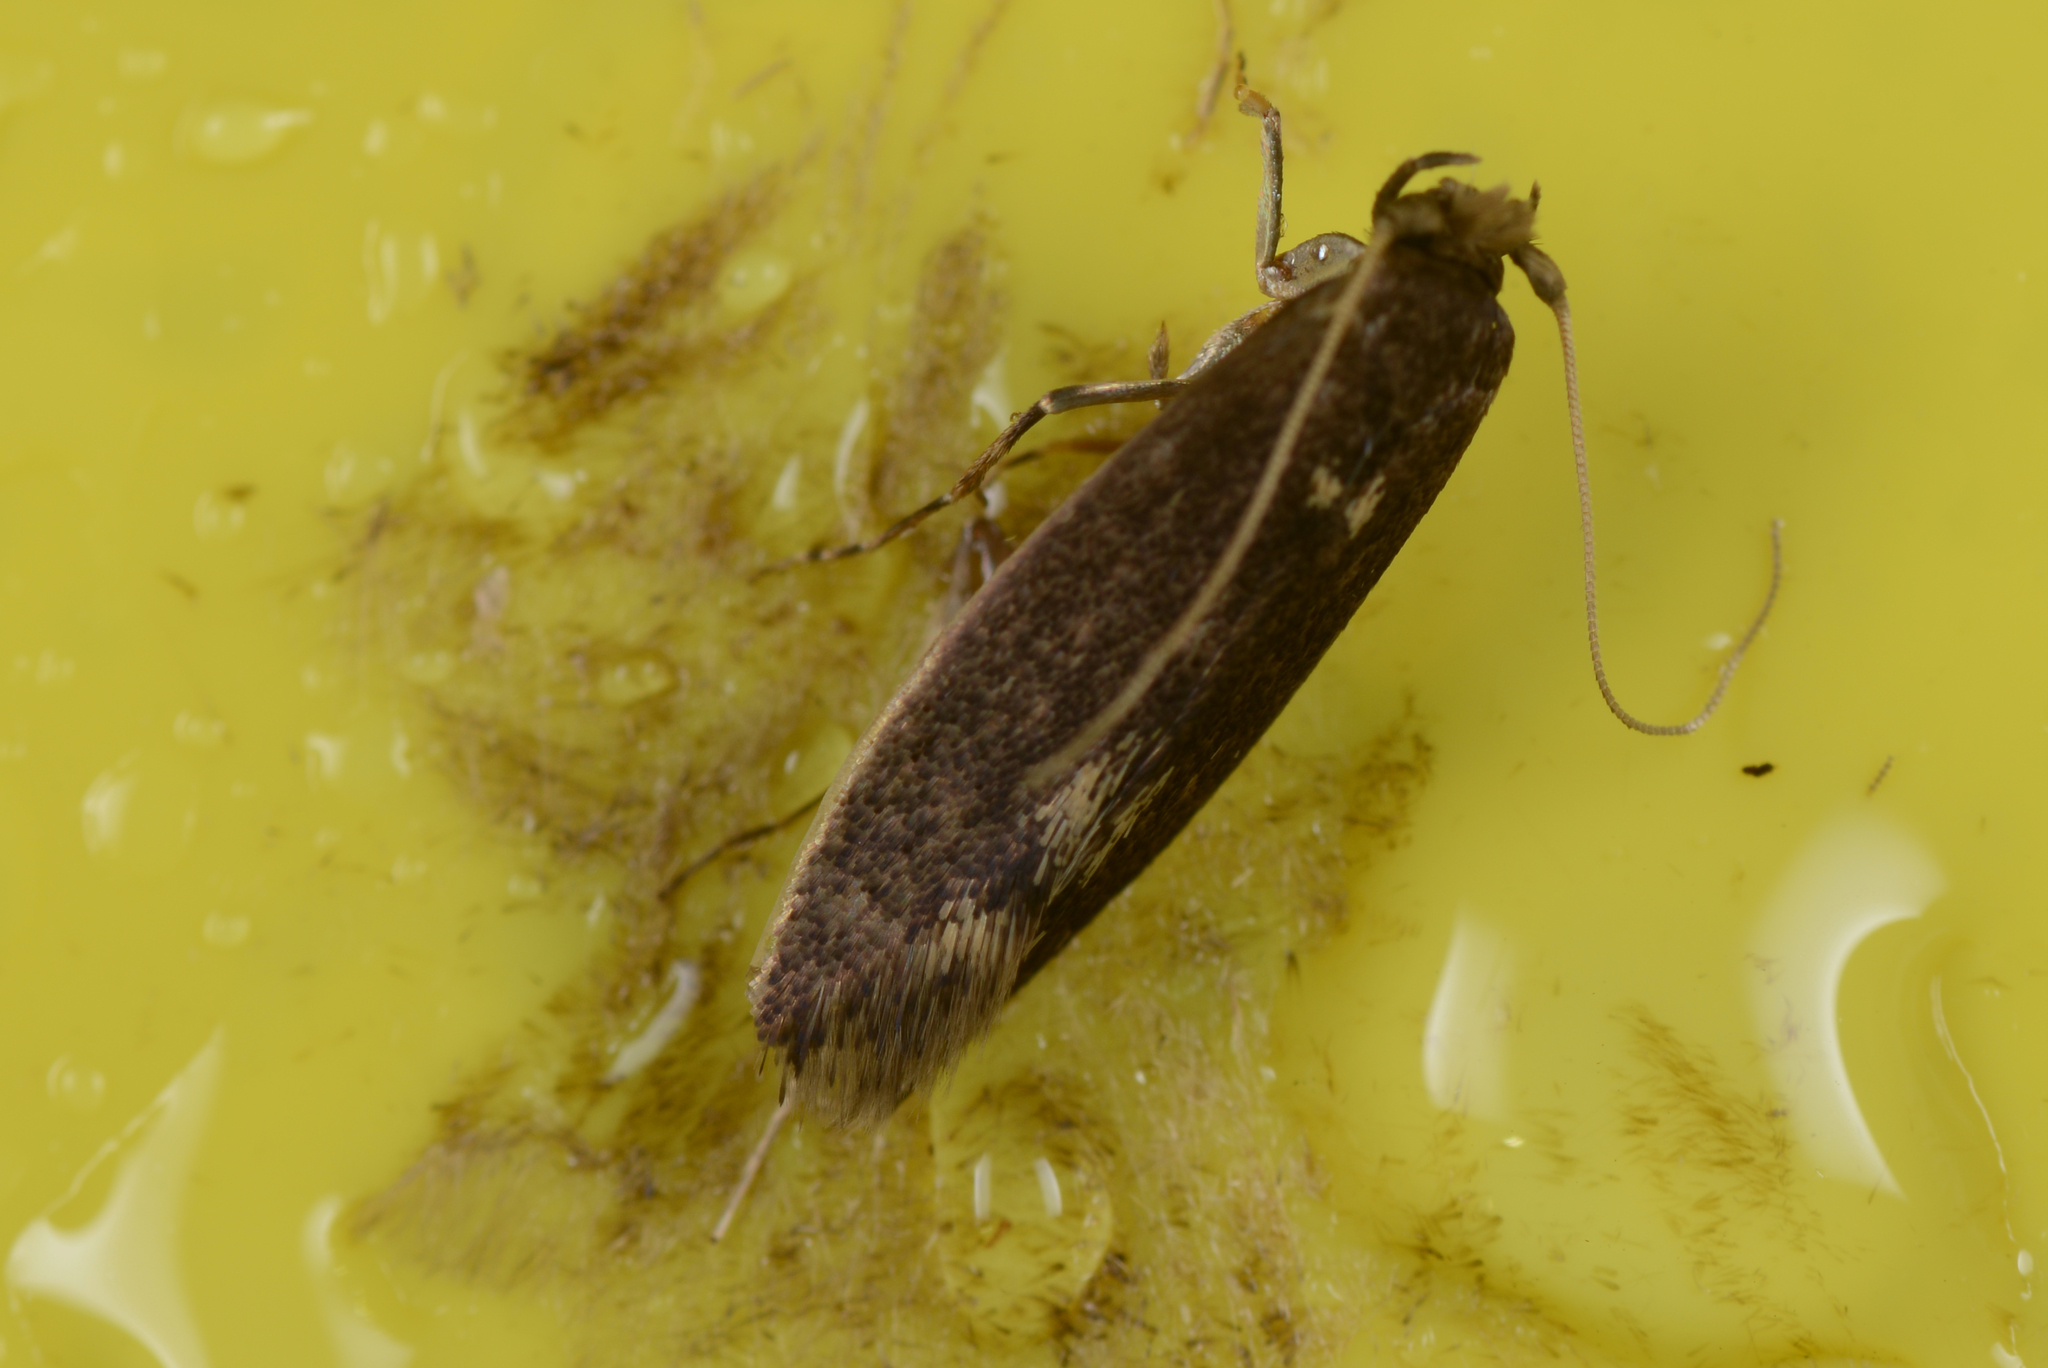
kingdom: Animalia
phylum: Arthropoda
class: Insecta
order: Lepidoptera
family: Tineidae
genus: Opogona
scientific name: Opogona omoscopa
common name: Moth
